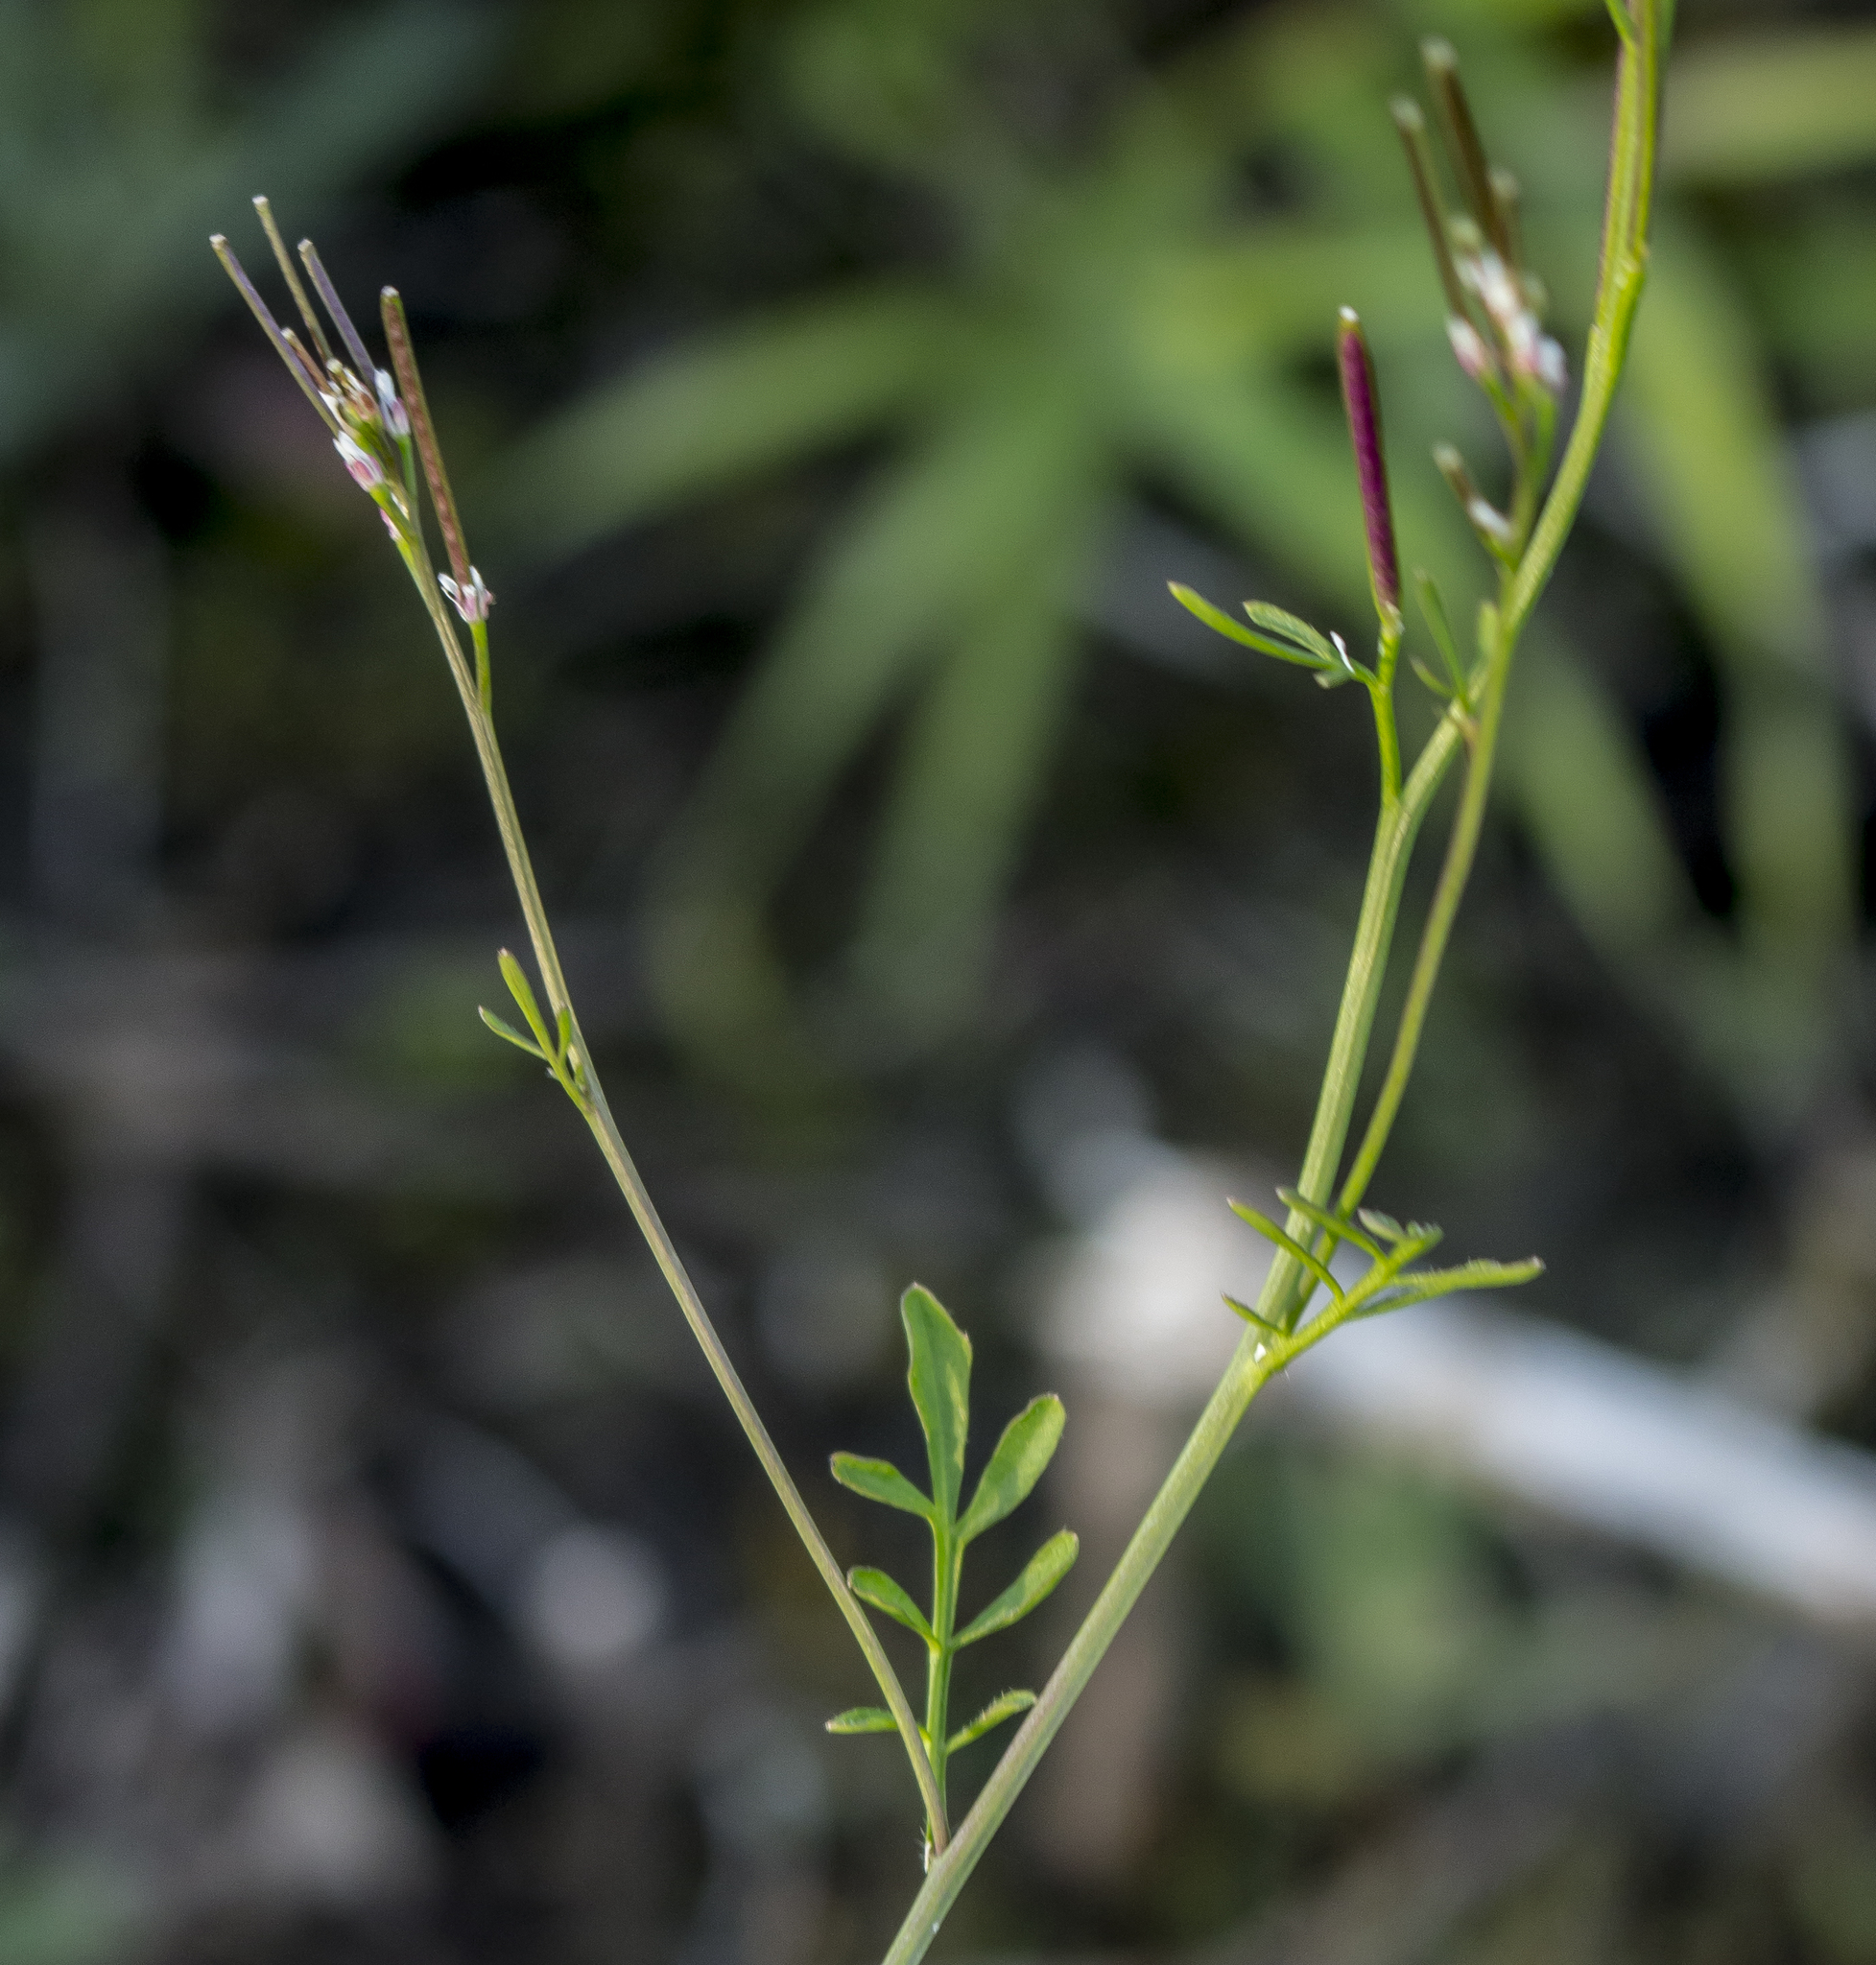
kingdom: Plantae
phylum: Tracheophyta
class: Magnoliopsida
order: Brassicales
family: Brassicaceae
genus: Cardamine
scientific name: Cardamine pensylvanica
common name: Pennsylvania bittercress
